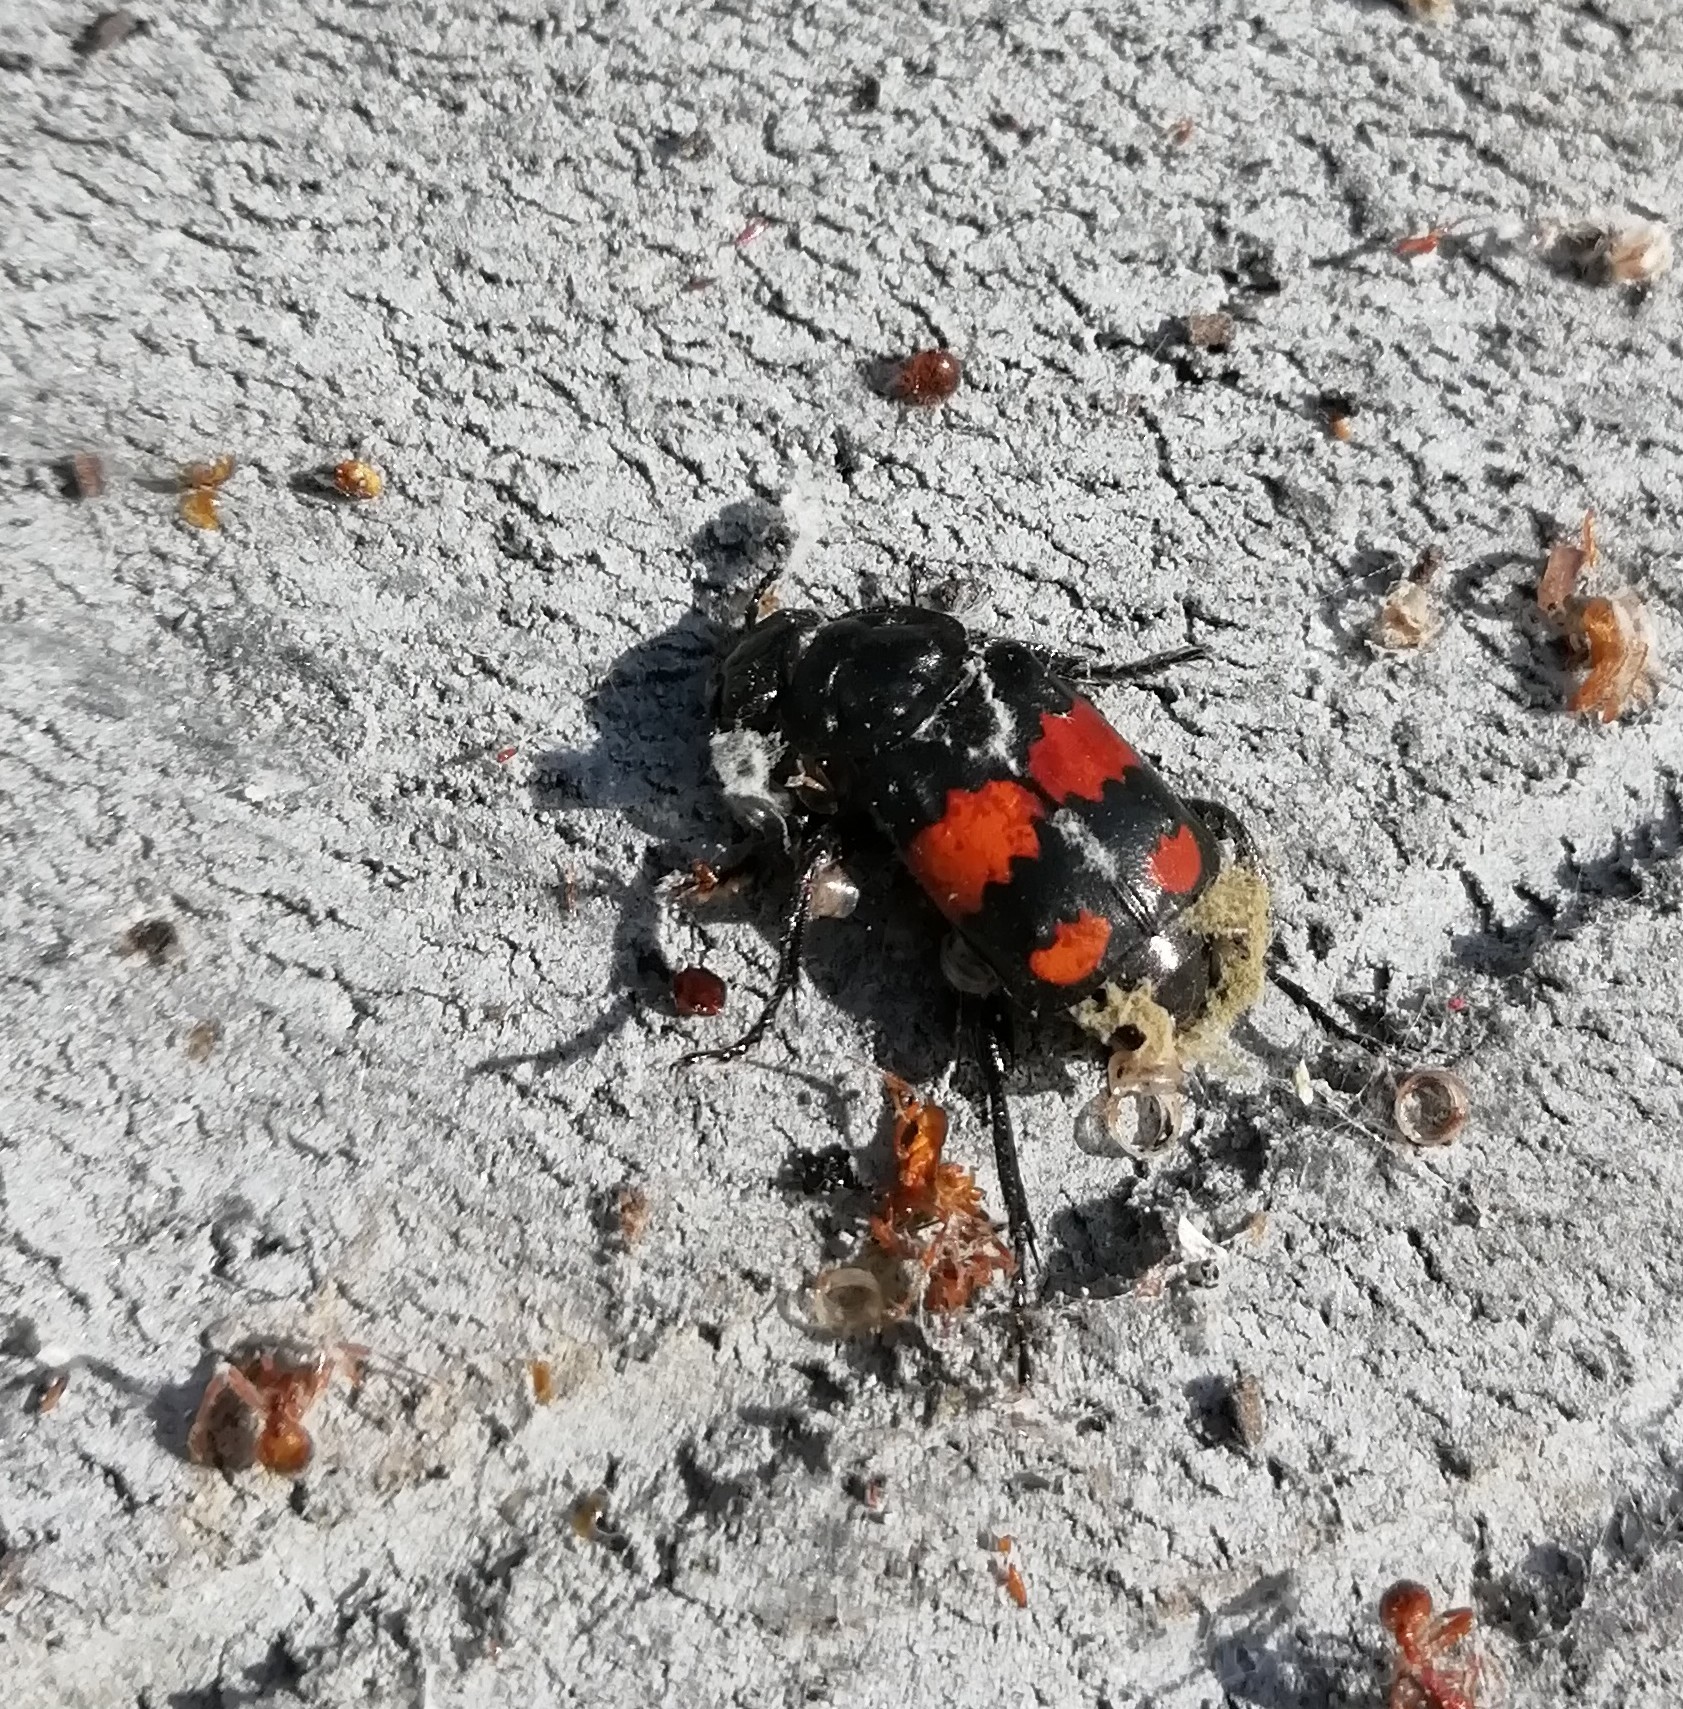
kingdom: Animalia
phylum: Arthropoda
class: Insecta
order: Coleoptera
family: Staphylinidae
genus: Nicrophorus
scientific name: Nicrophorus vespilloides
